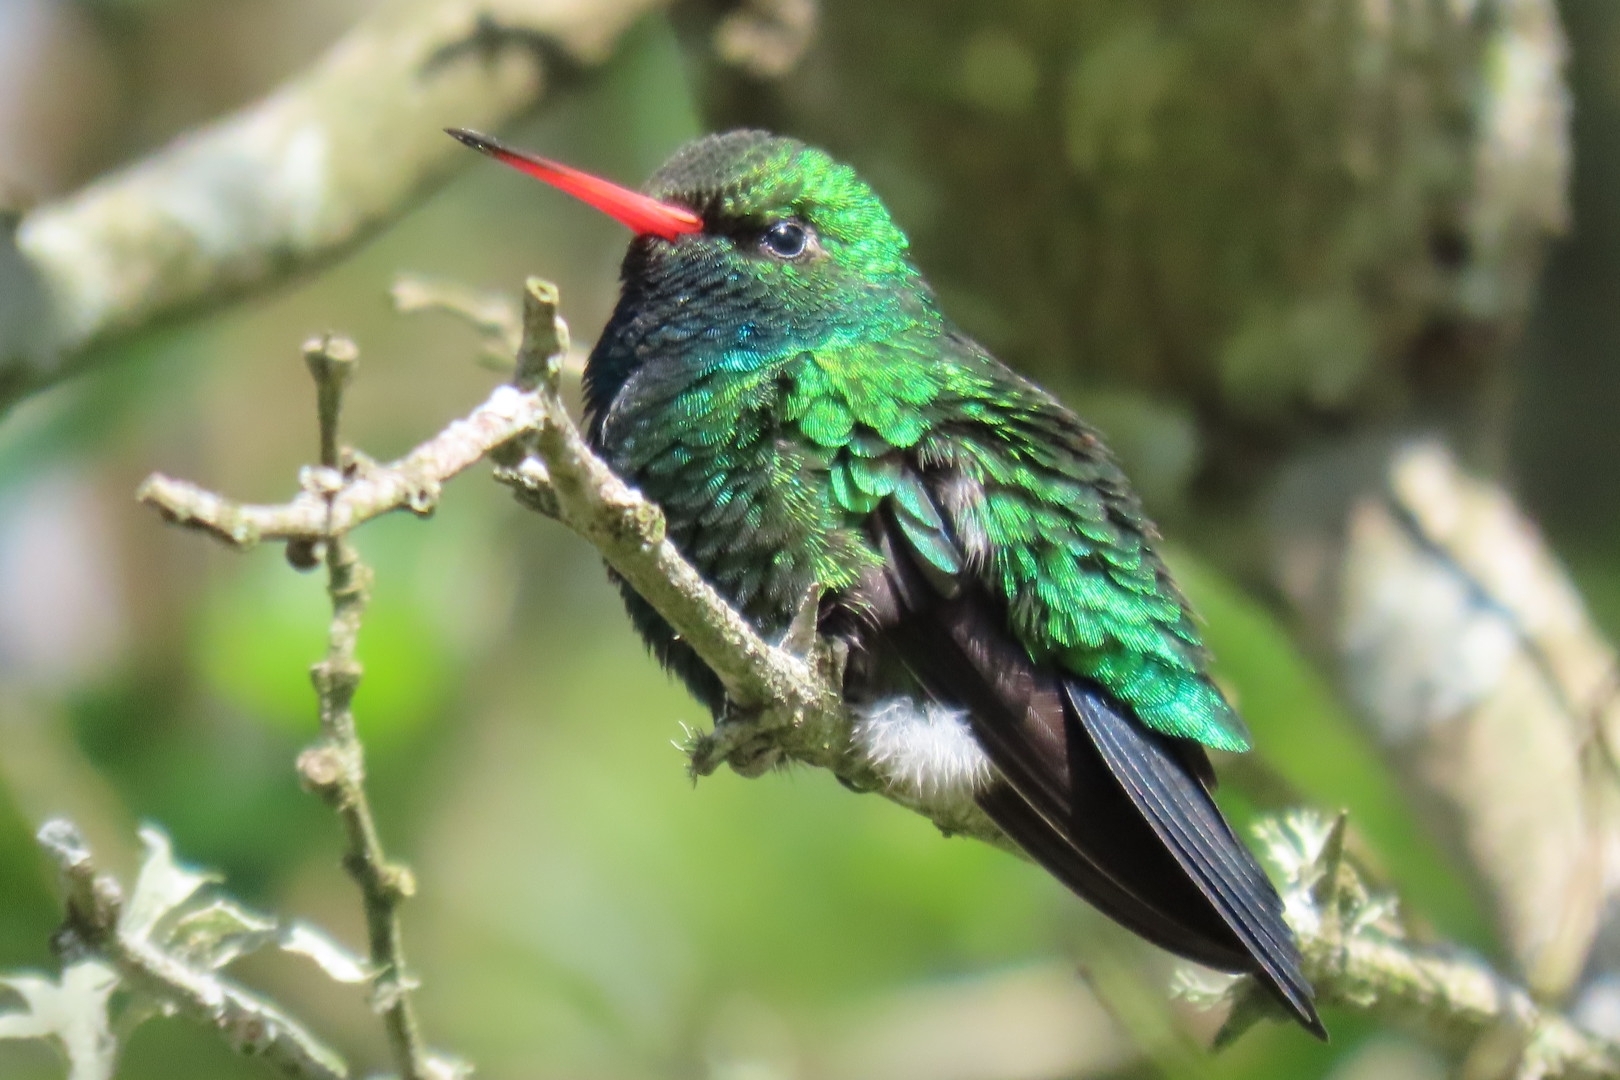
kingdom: Animalia
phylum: Chordata
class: Aves
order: Apodiformes
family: Trochilidae
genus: Chlorostilbon
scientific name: Chlorostilbon lucidus
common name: Glittering-bellied emerald
